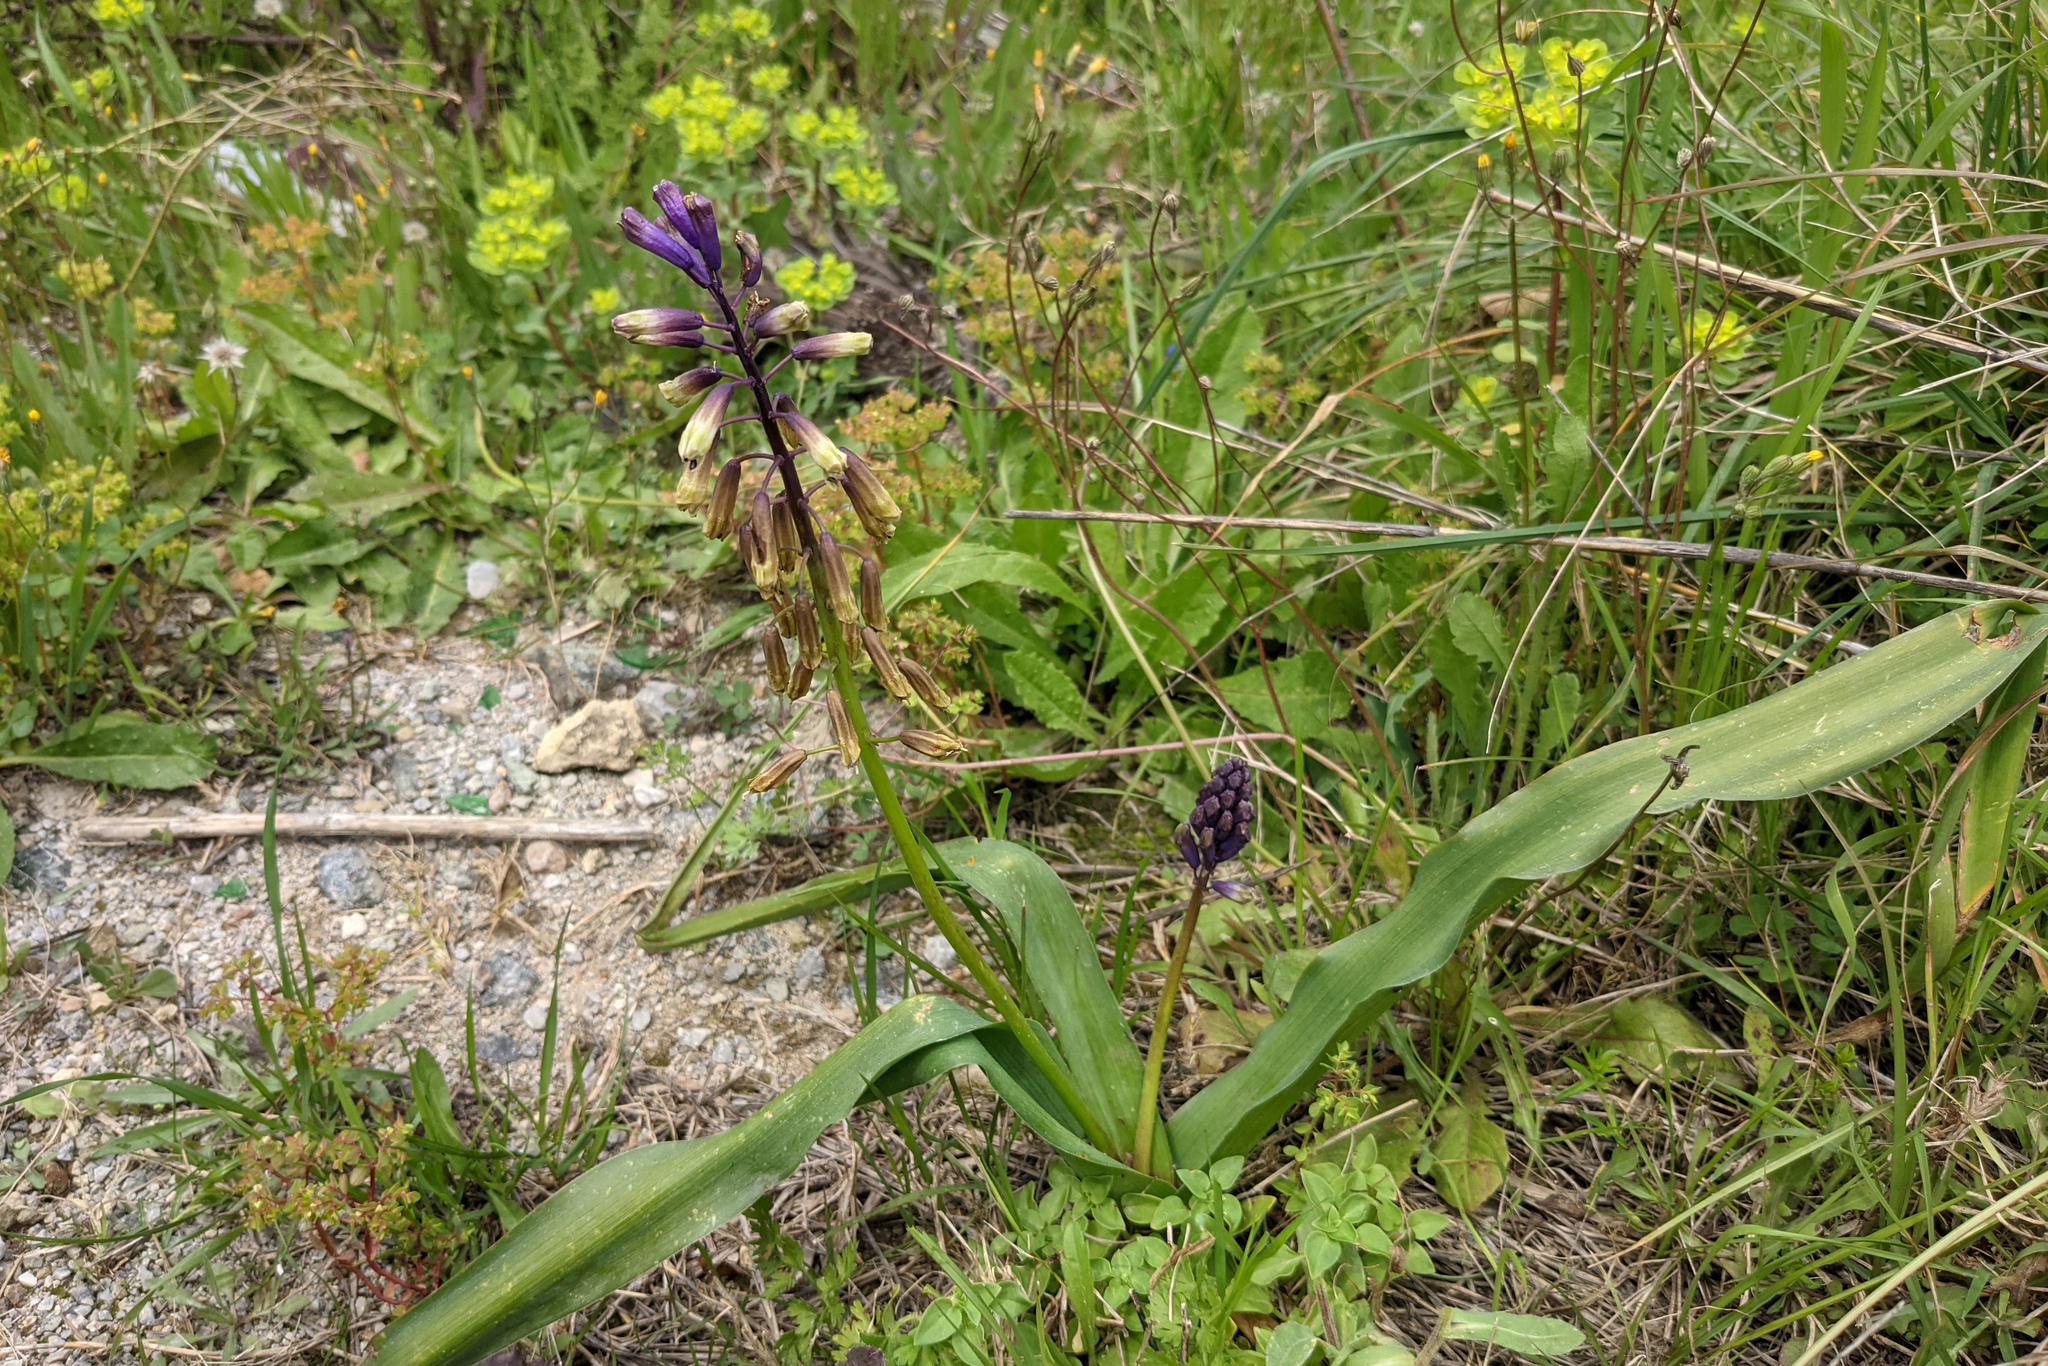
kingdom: Plantae
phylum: Tracheophyta
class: Liliopsida
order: Asparagales
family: Asparagaceae
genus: Bellevalia
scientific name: Bellevalia trifoliata
